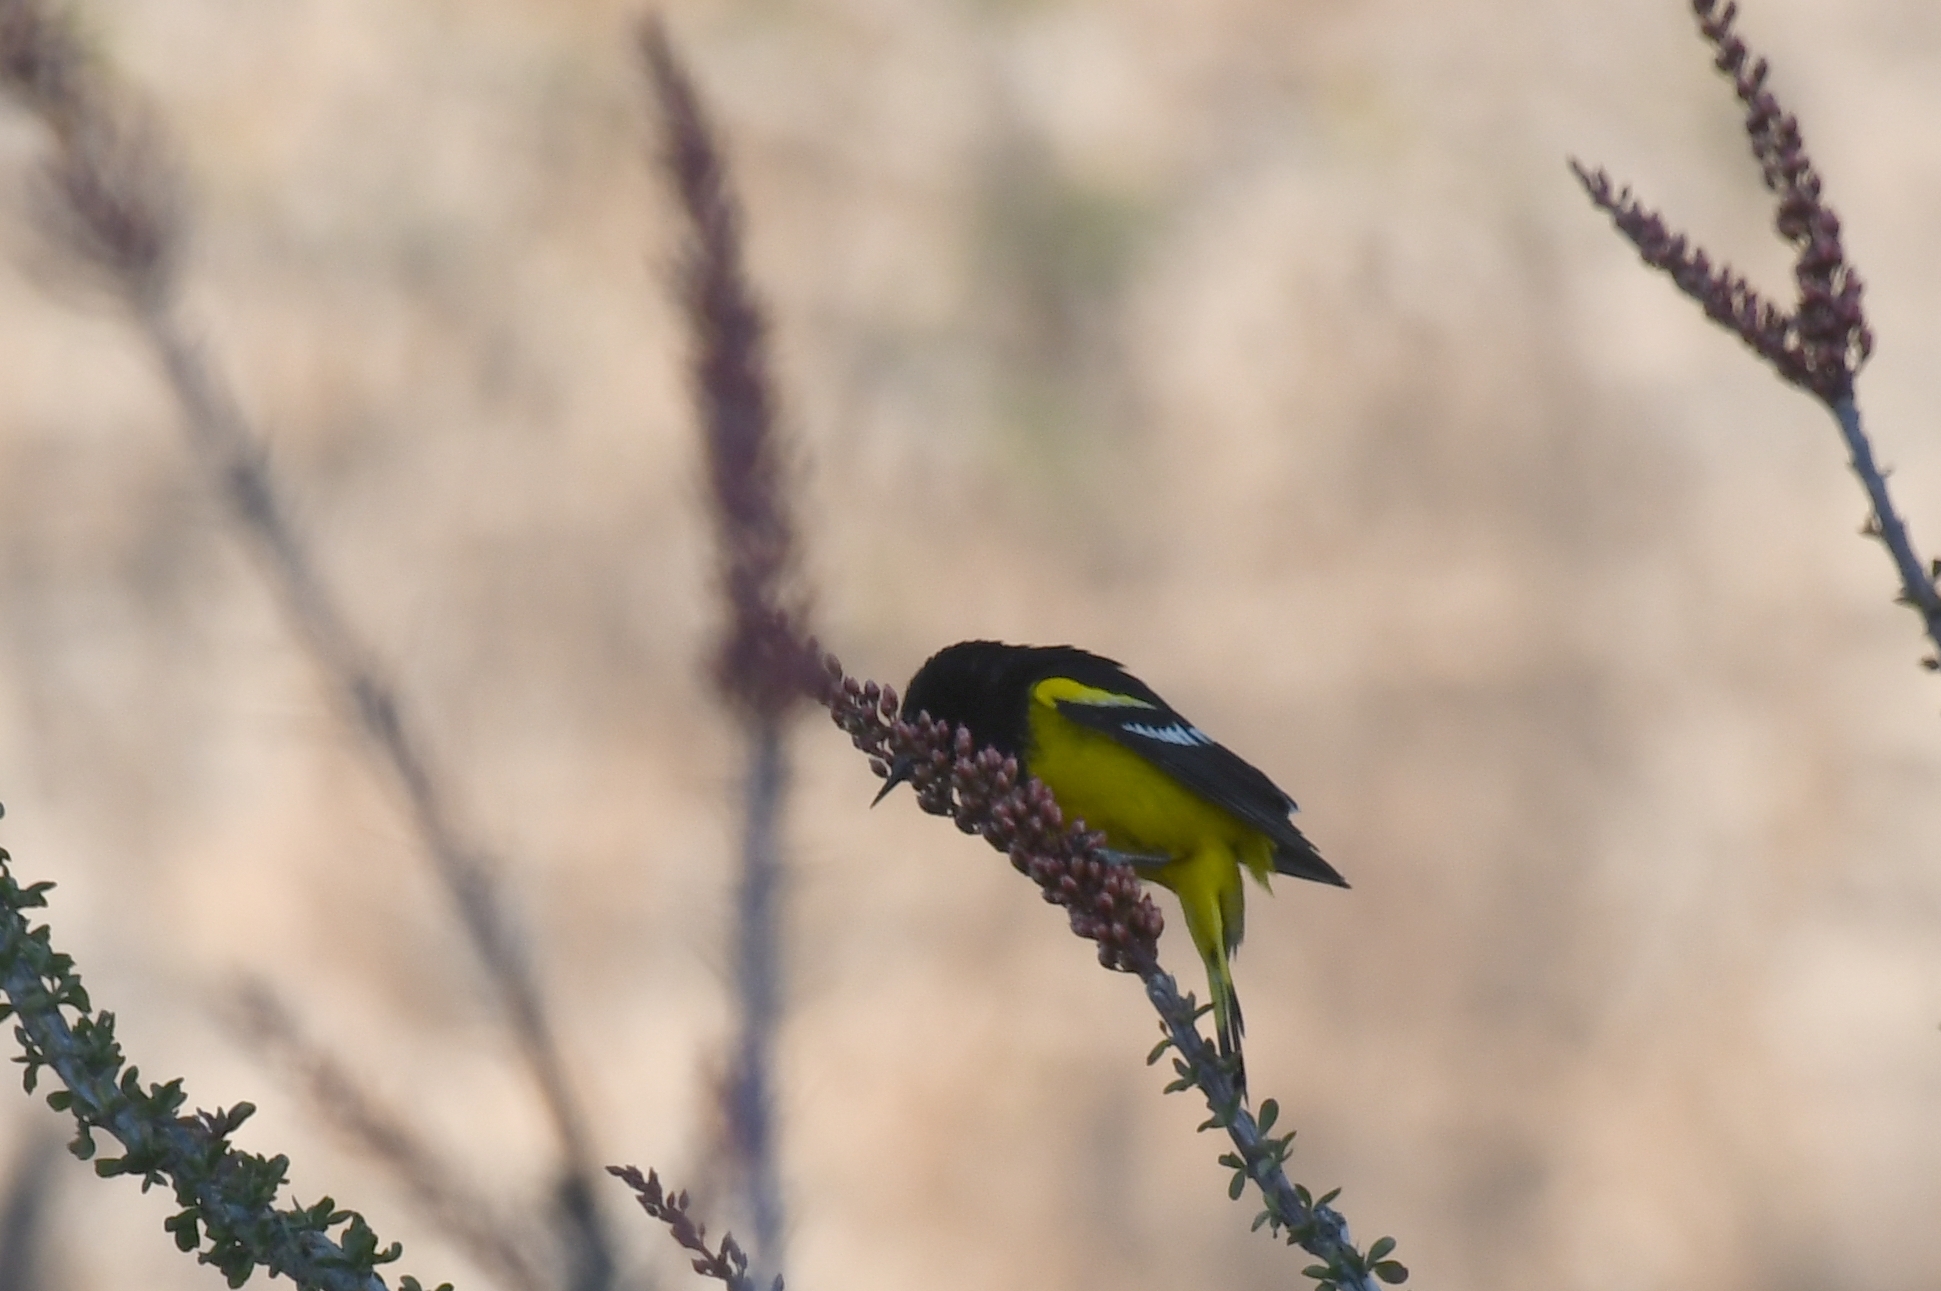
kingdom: Animalia
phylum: Chordata
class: Aves
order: Passeriformes
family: Icteridae
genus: Icterus
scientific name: Icterus parisorum
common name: Scott's oriole
